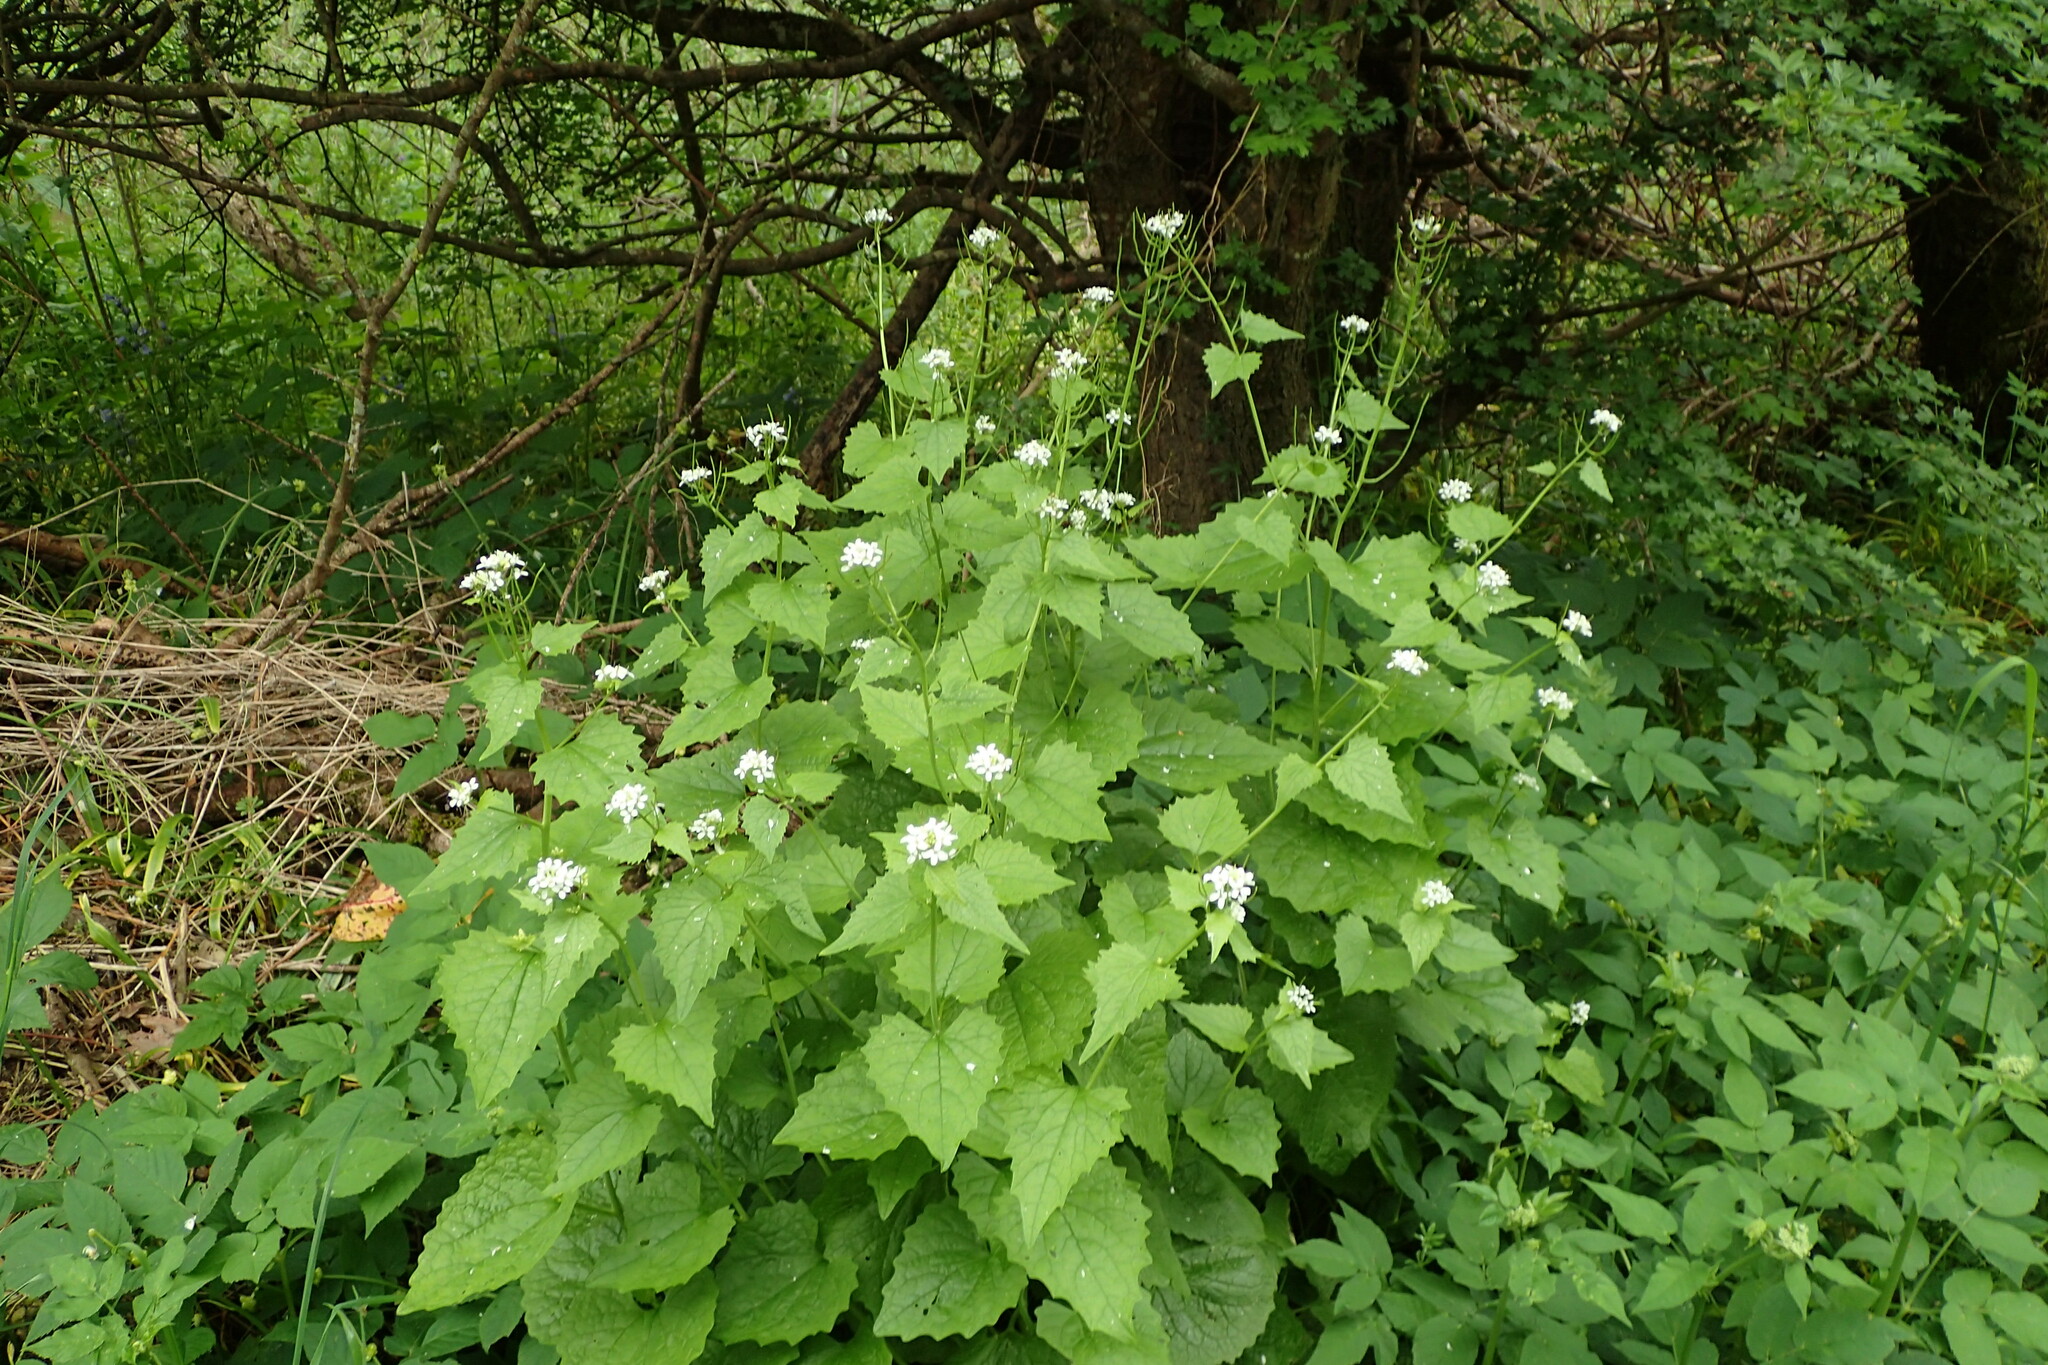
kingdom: Plantae
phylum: Tracheophyta
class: Magnoliopsida
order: Brassicales
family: Brassicaceae
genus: Alliaria
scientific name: Alliaria petiolata
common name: Garlic mustard
